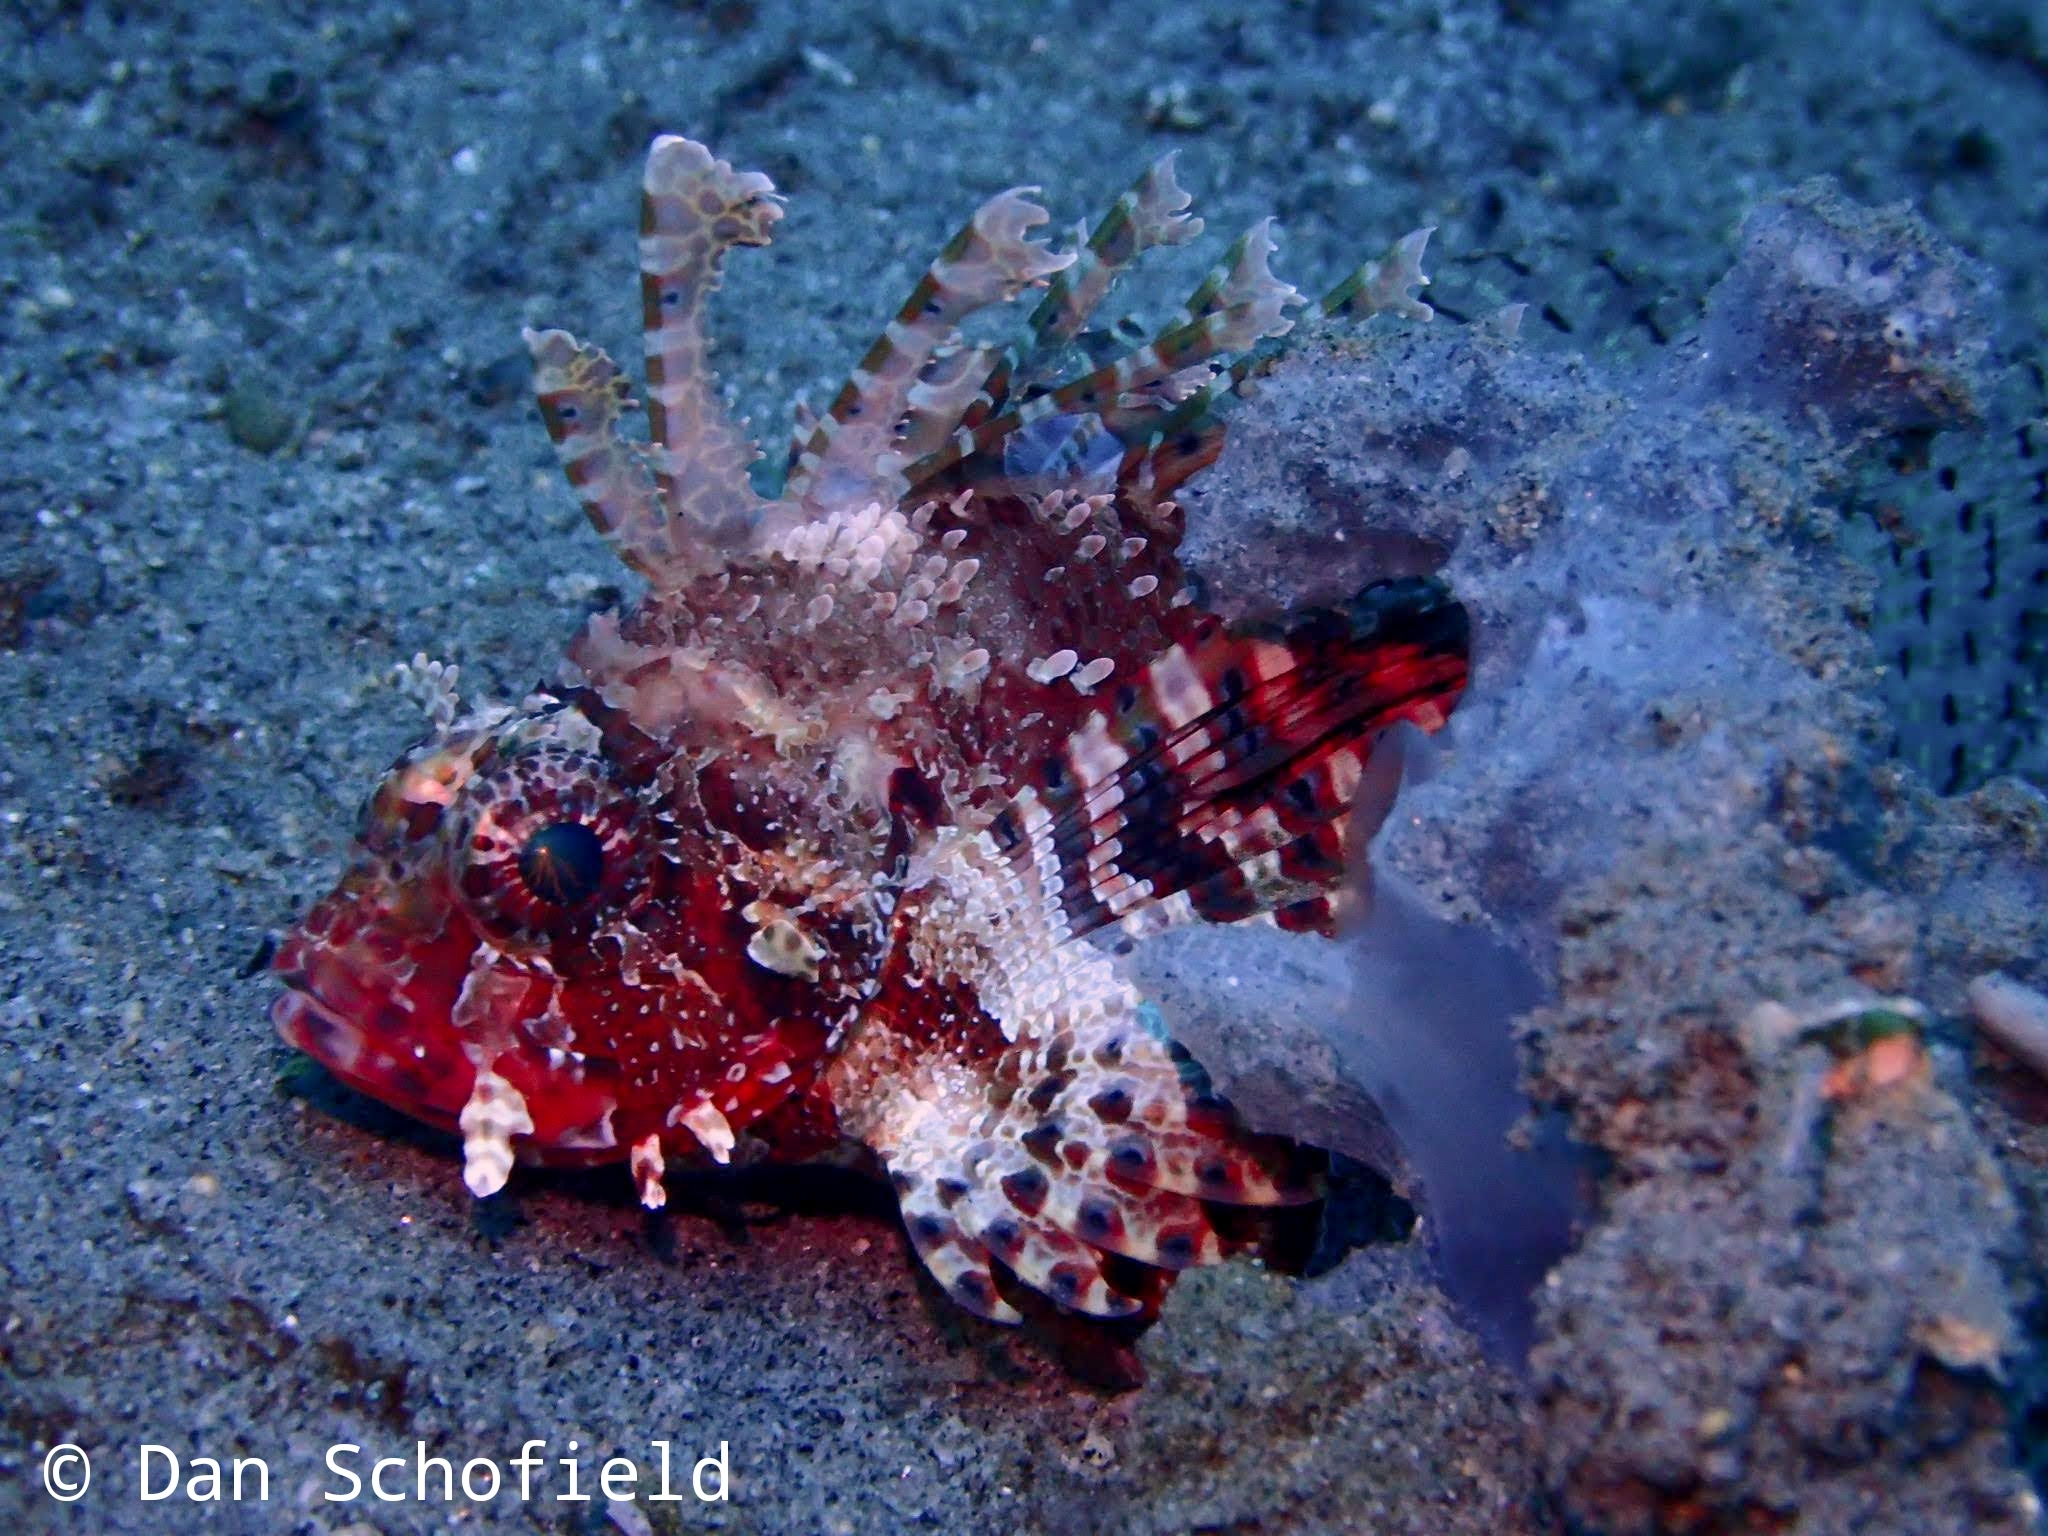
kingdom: Animalia
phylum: Chordata
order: Scorpaeniformes
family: Scorpaenidae
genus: Dendrochirus
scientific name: Dendrochirus brachypterus
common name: Shortfin turkeyfish
